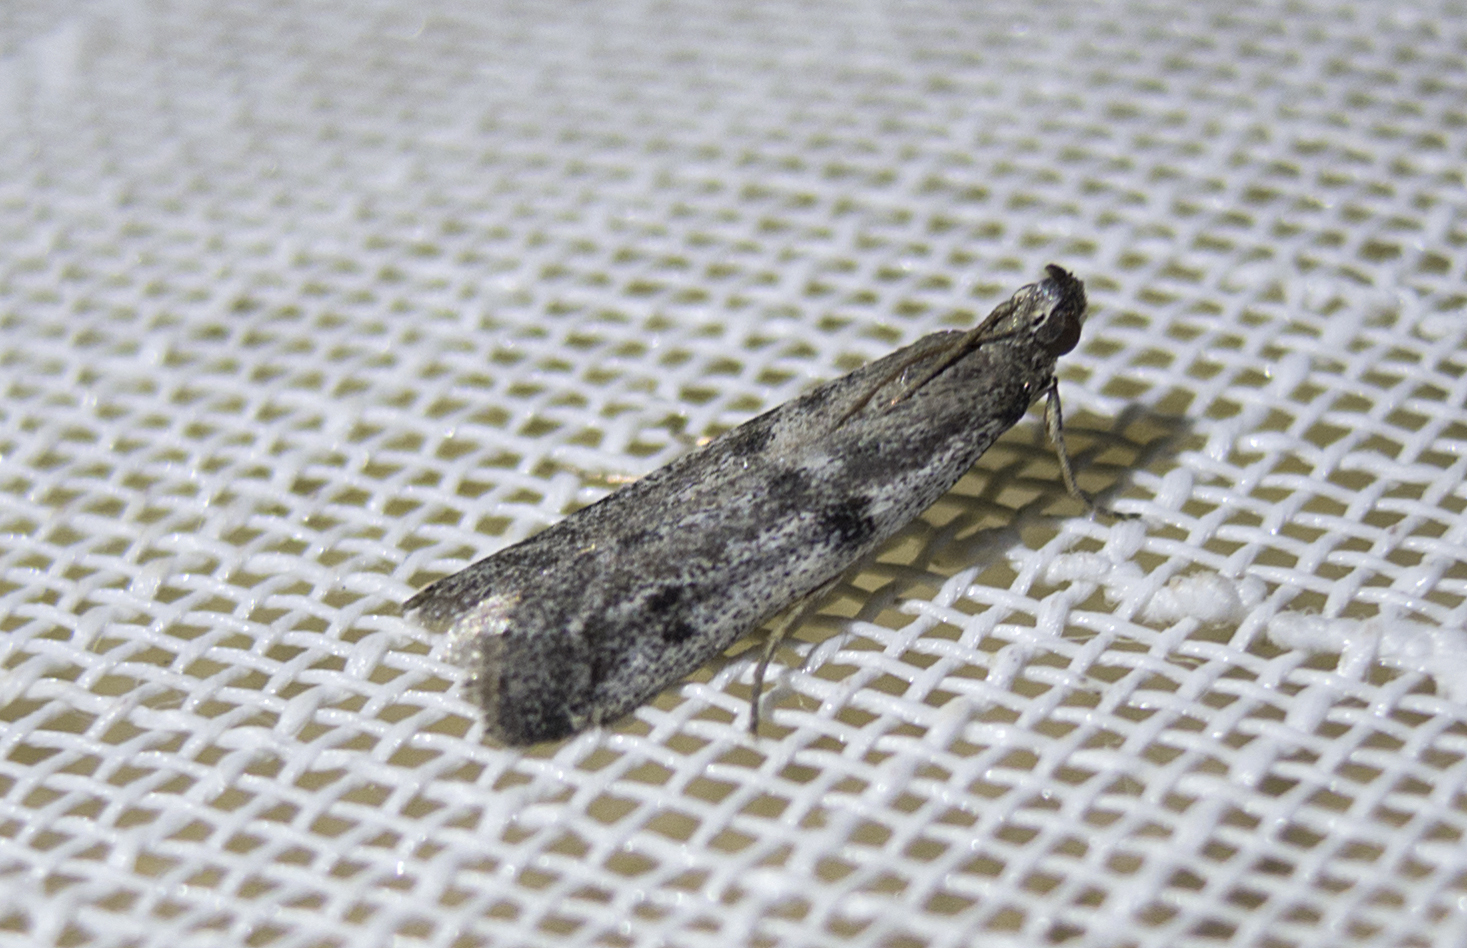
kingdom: Animalia
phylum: Arthropoda
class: Insecta
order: Lepidoptera
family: Pyralidae
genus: Phycitodes
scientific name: Phycitodes binaevella
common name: Ermine knot-horn
